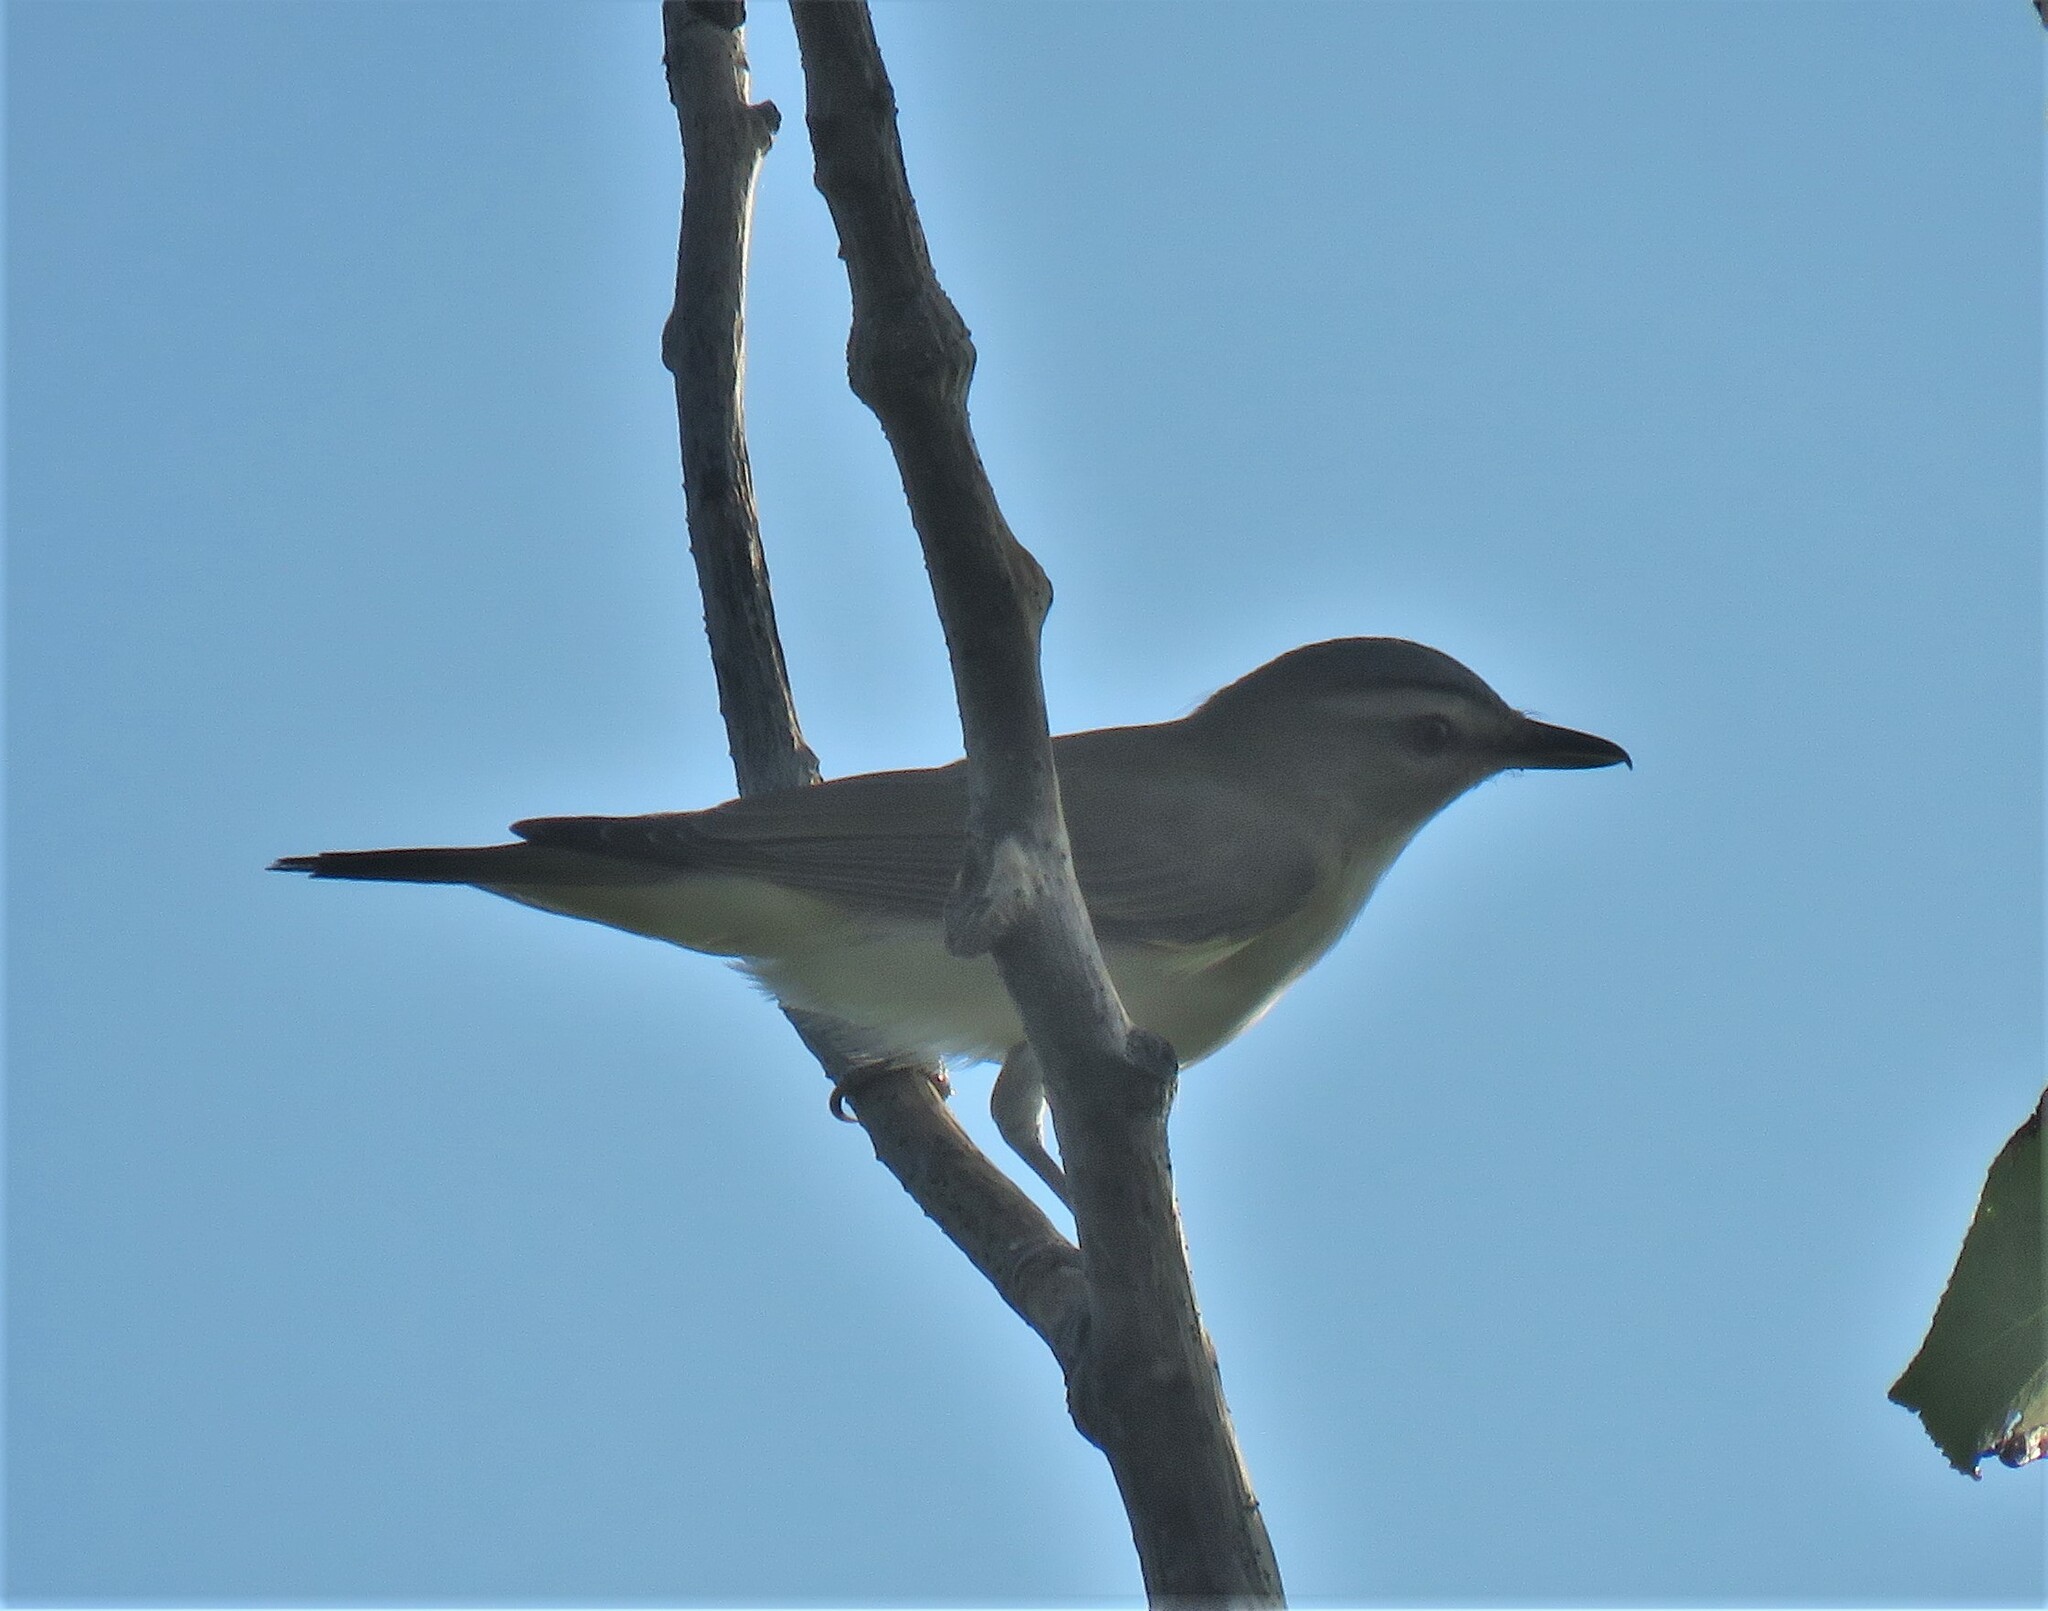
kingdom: Animalia
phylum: Chordata
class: Aves
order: Passeriformes
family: Vireonidae
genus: Vireo
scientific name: Vireo olivaceus
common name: Red-eyed vireo
